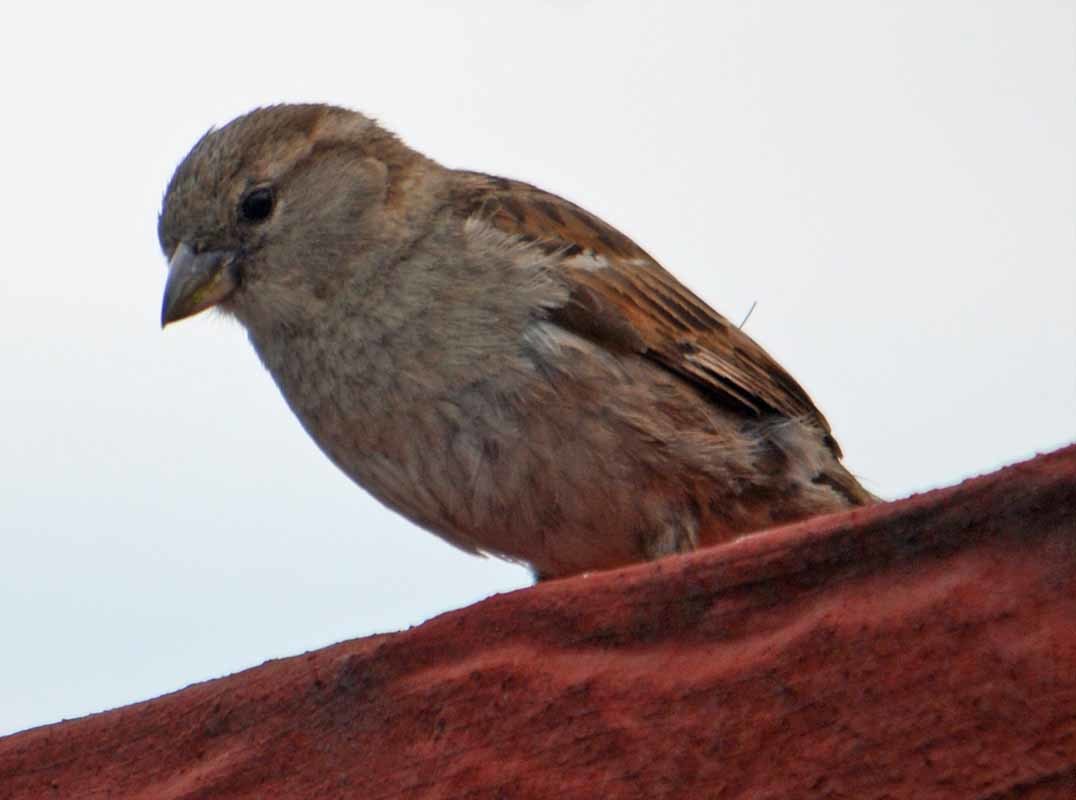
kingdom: Animalia
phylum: Chordata
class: Aves
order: Passeriformes
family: Passeridae
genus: Passer
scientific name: Passer domesticus
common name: House sparrow
